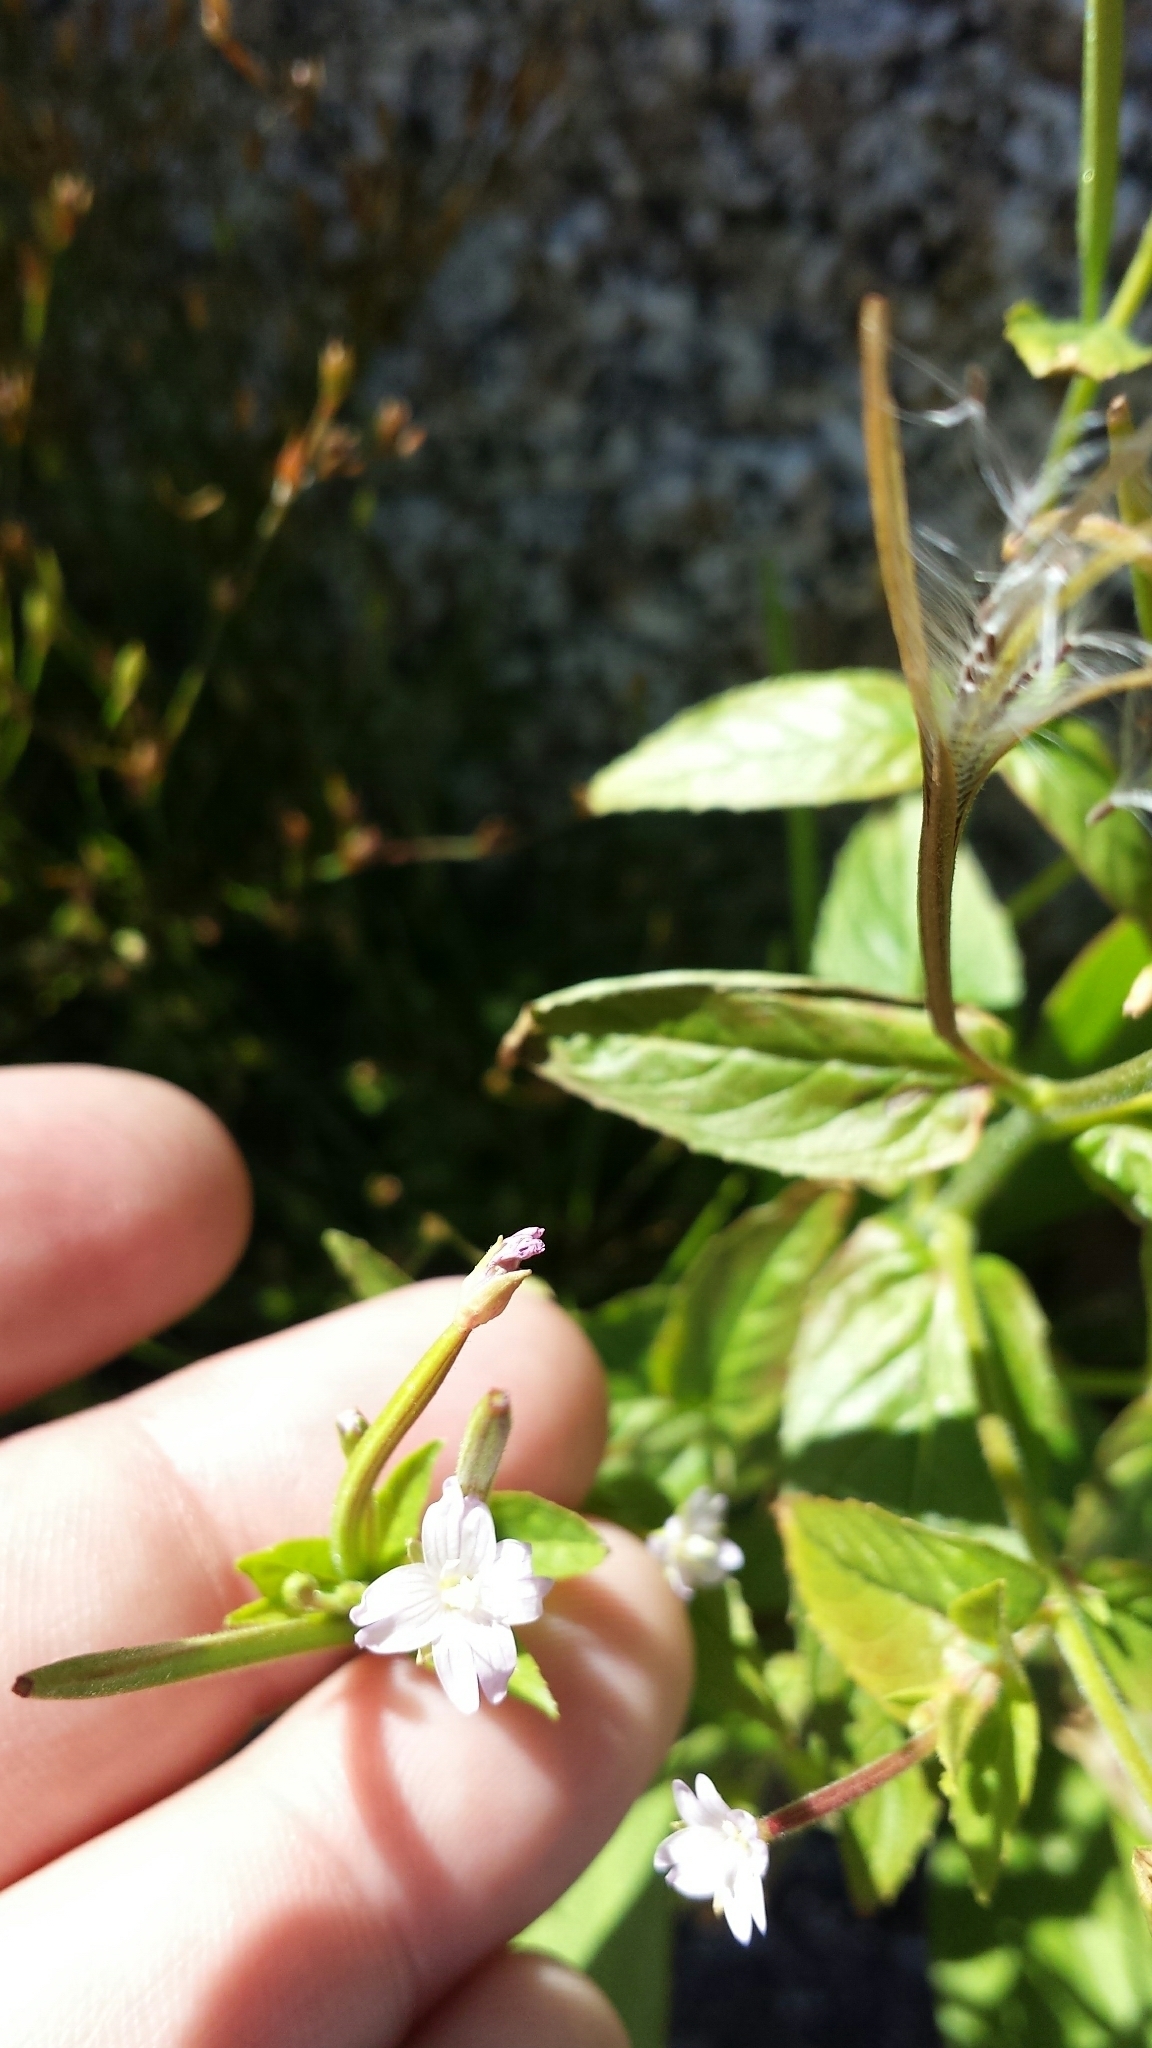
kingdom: Plantae
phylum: Tracheophyta
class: Magnoliopsida
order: Myrtales
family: Onagraceae
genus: Epilobium
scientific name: Epilobium ciliatum
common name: American willowherb
